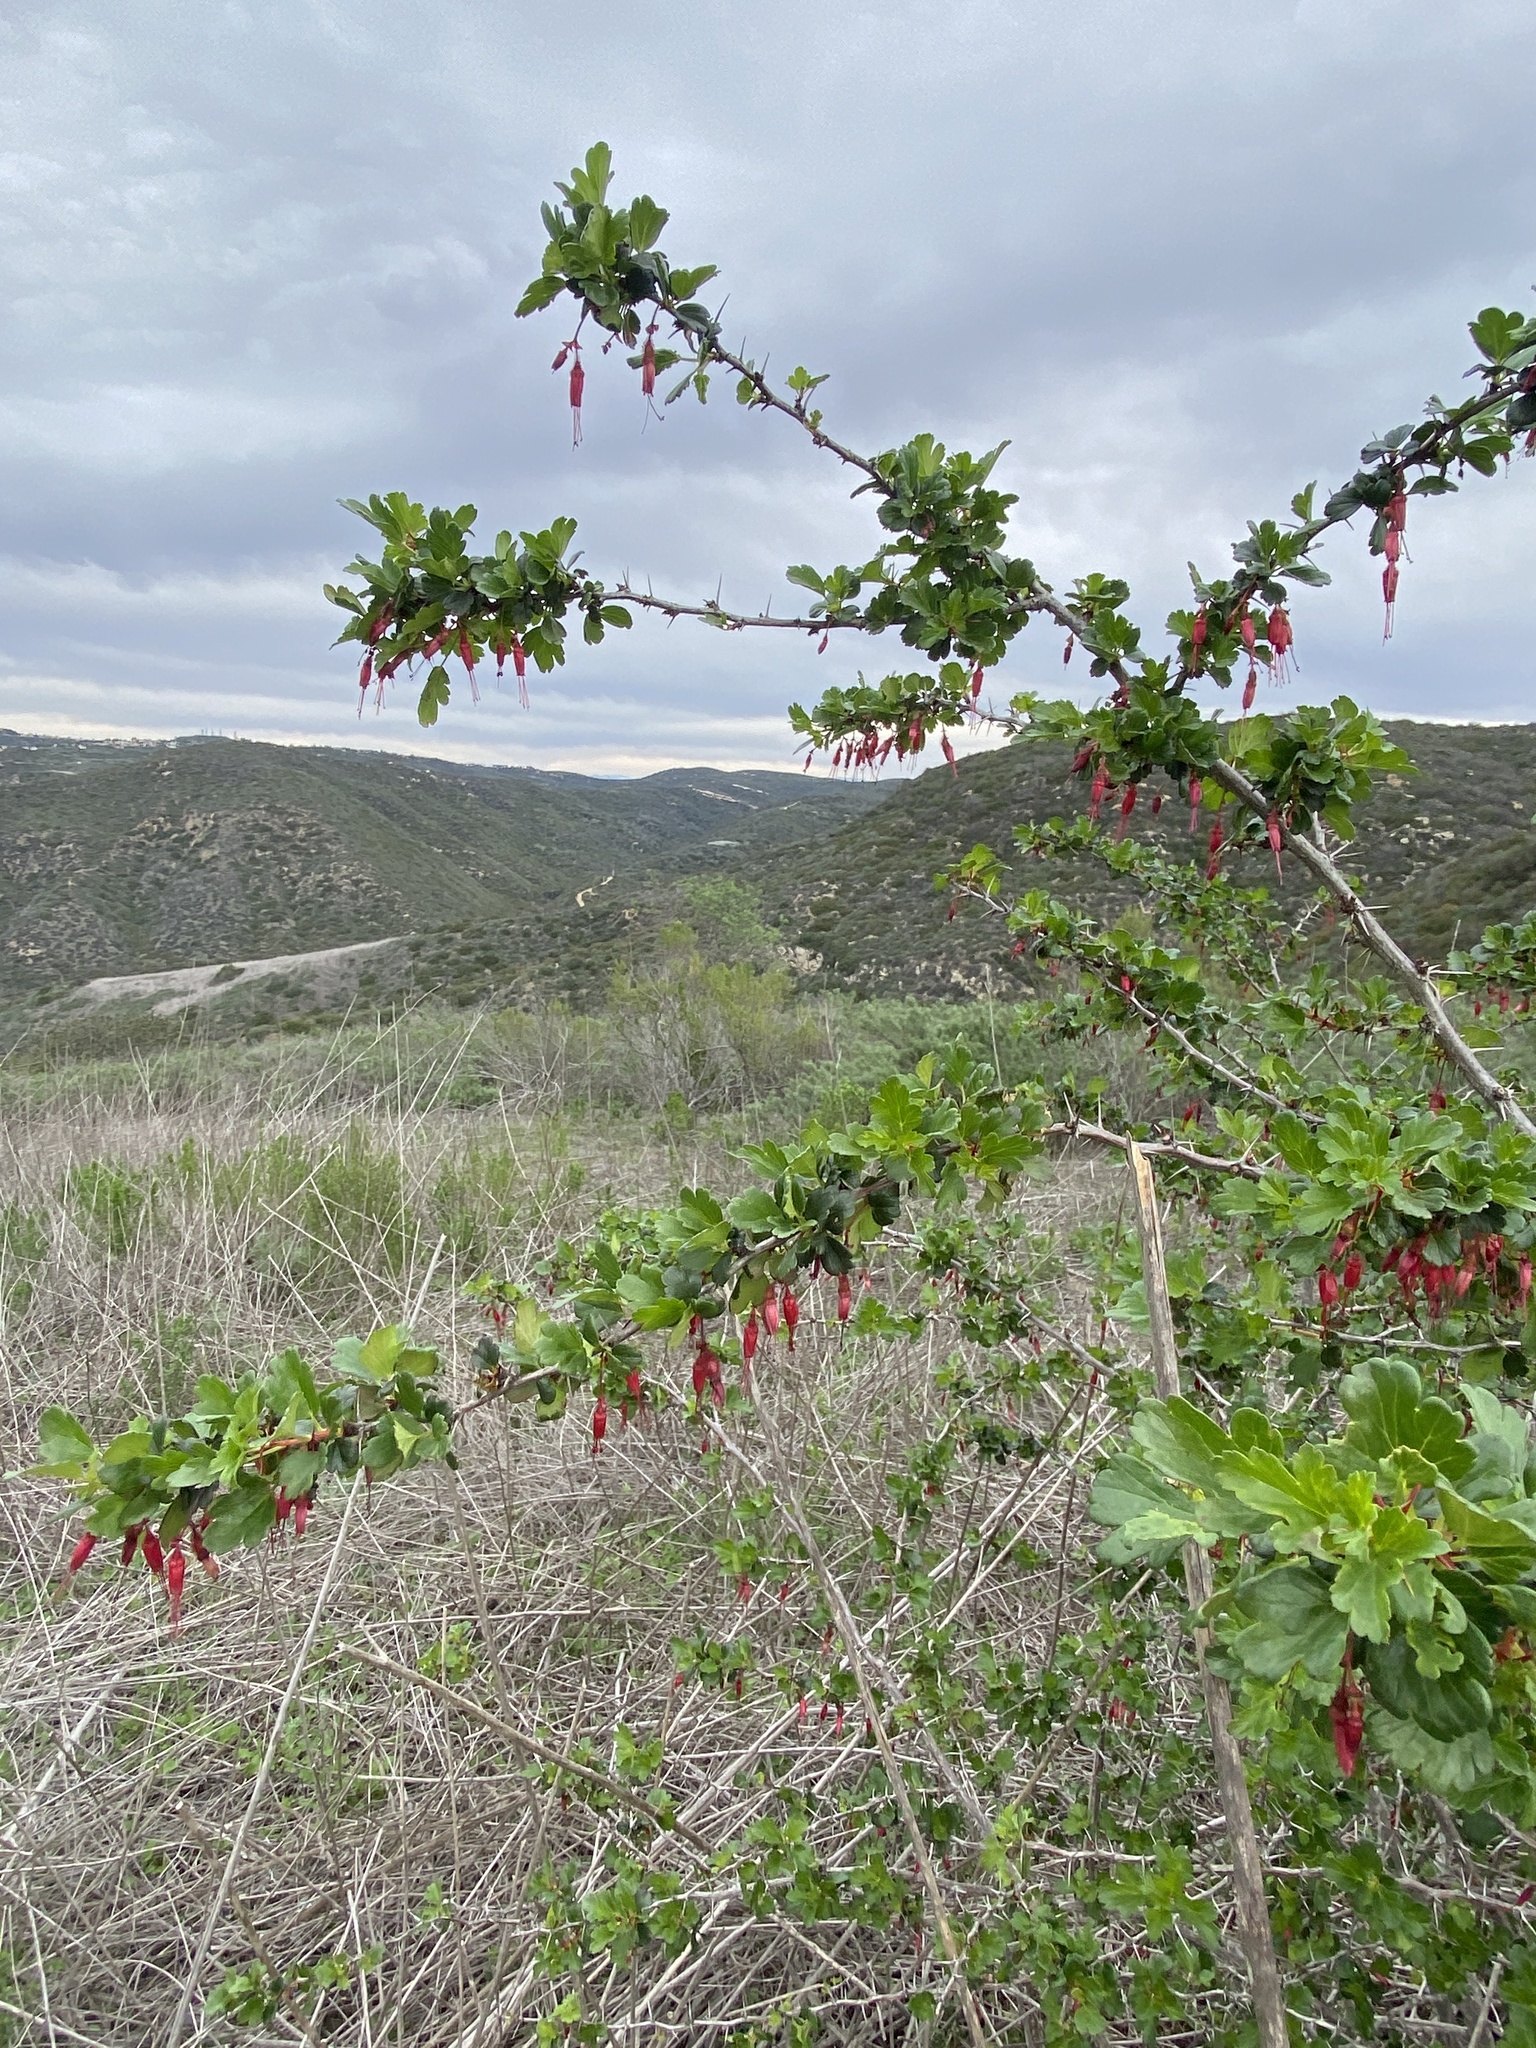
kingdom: Plantae
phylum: Tracheophyta
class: Magnoliopsida
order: Saxifragales
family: Grossulariaceae
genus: Ribes
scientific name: Ribes speciosum
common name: Fuchsia-flower gooseberry
